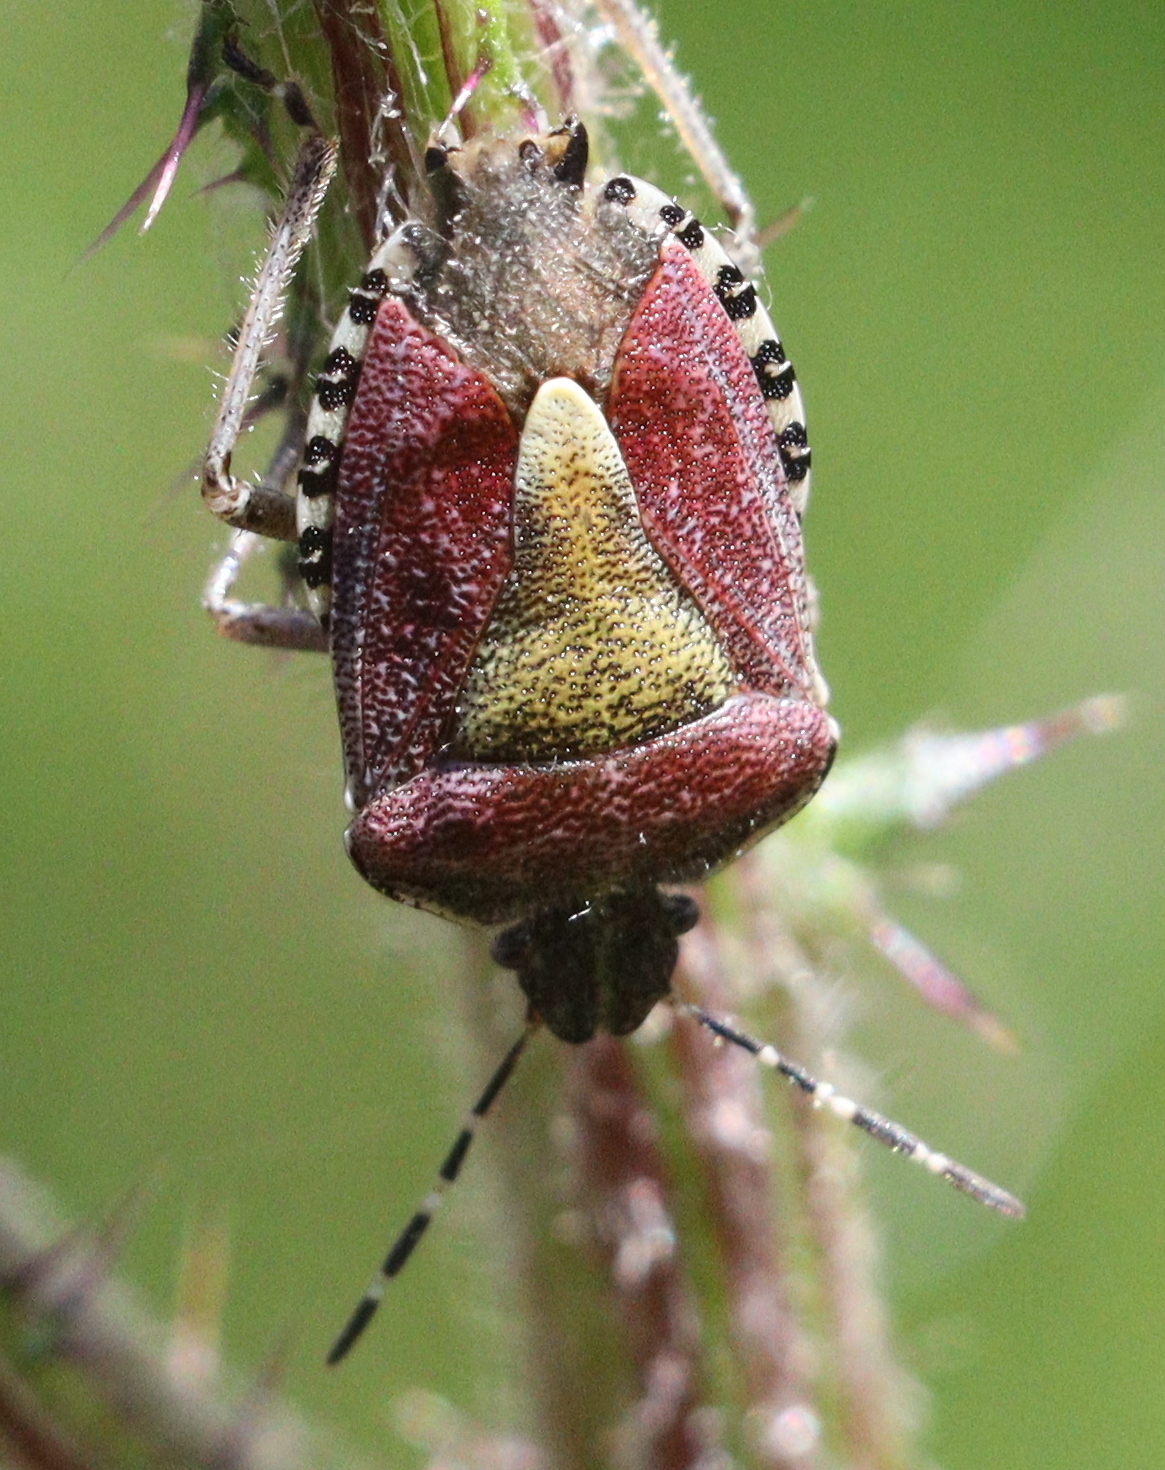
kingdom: Animalia
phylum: Arthropoda
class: Insecta
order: Hemiptera
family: Pentatomidae
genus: Dolycoris
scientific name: Dolycoris baccarum
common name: Sloe bug
